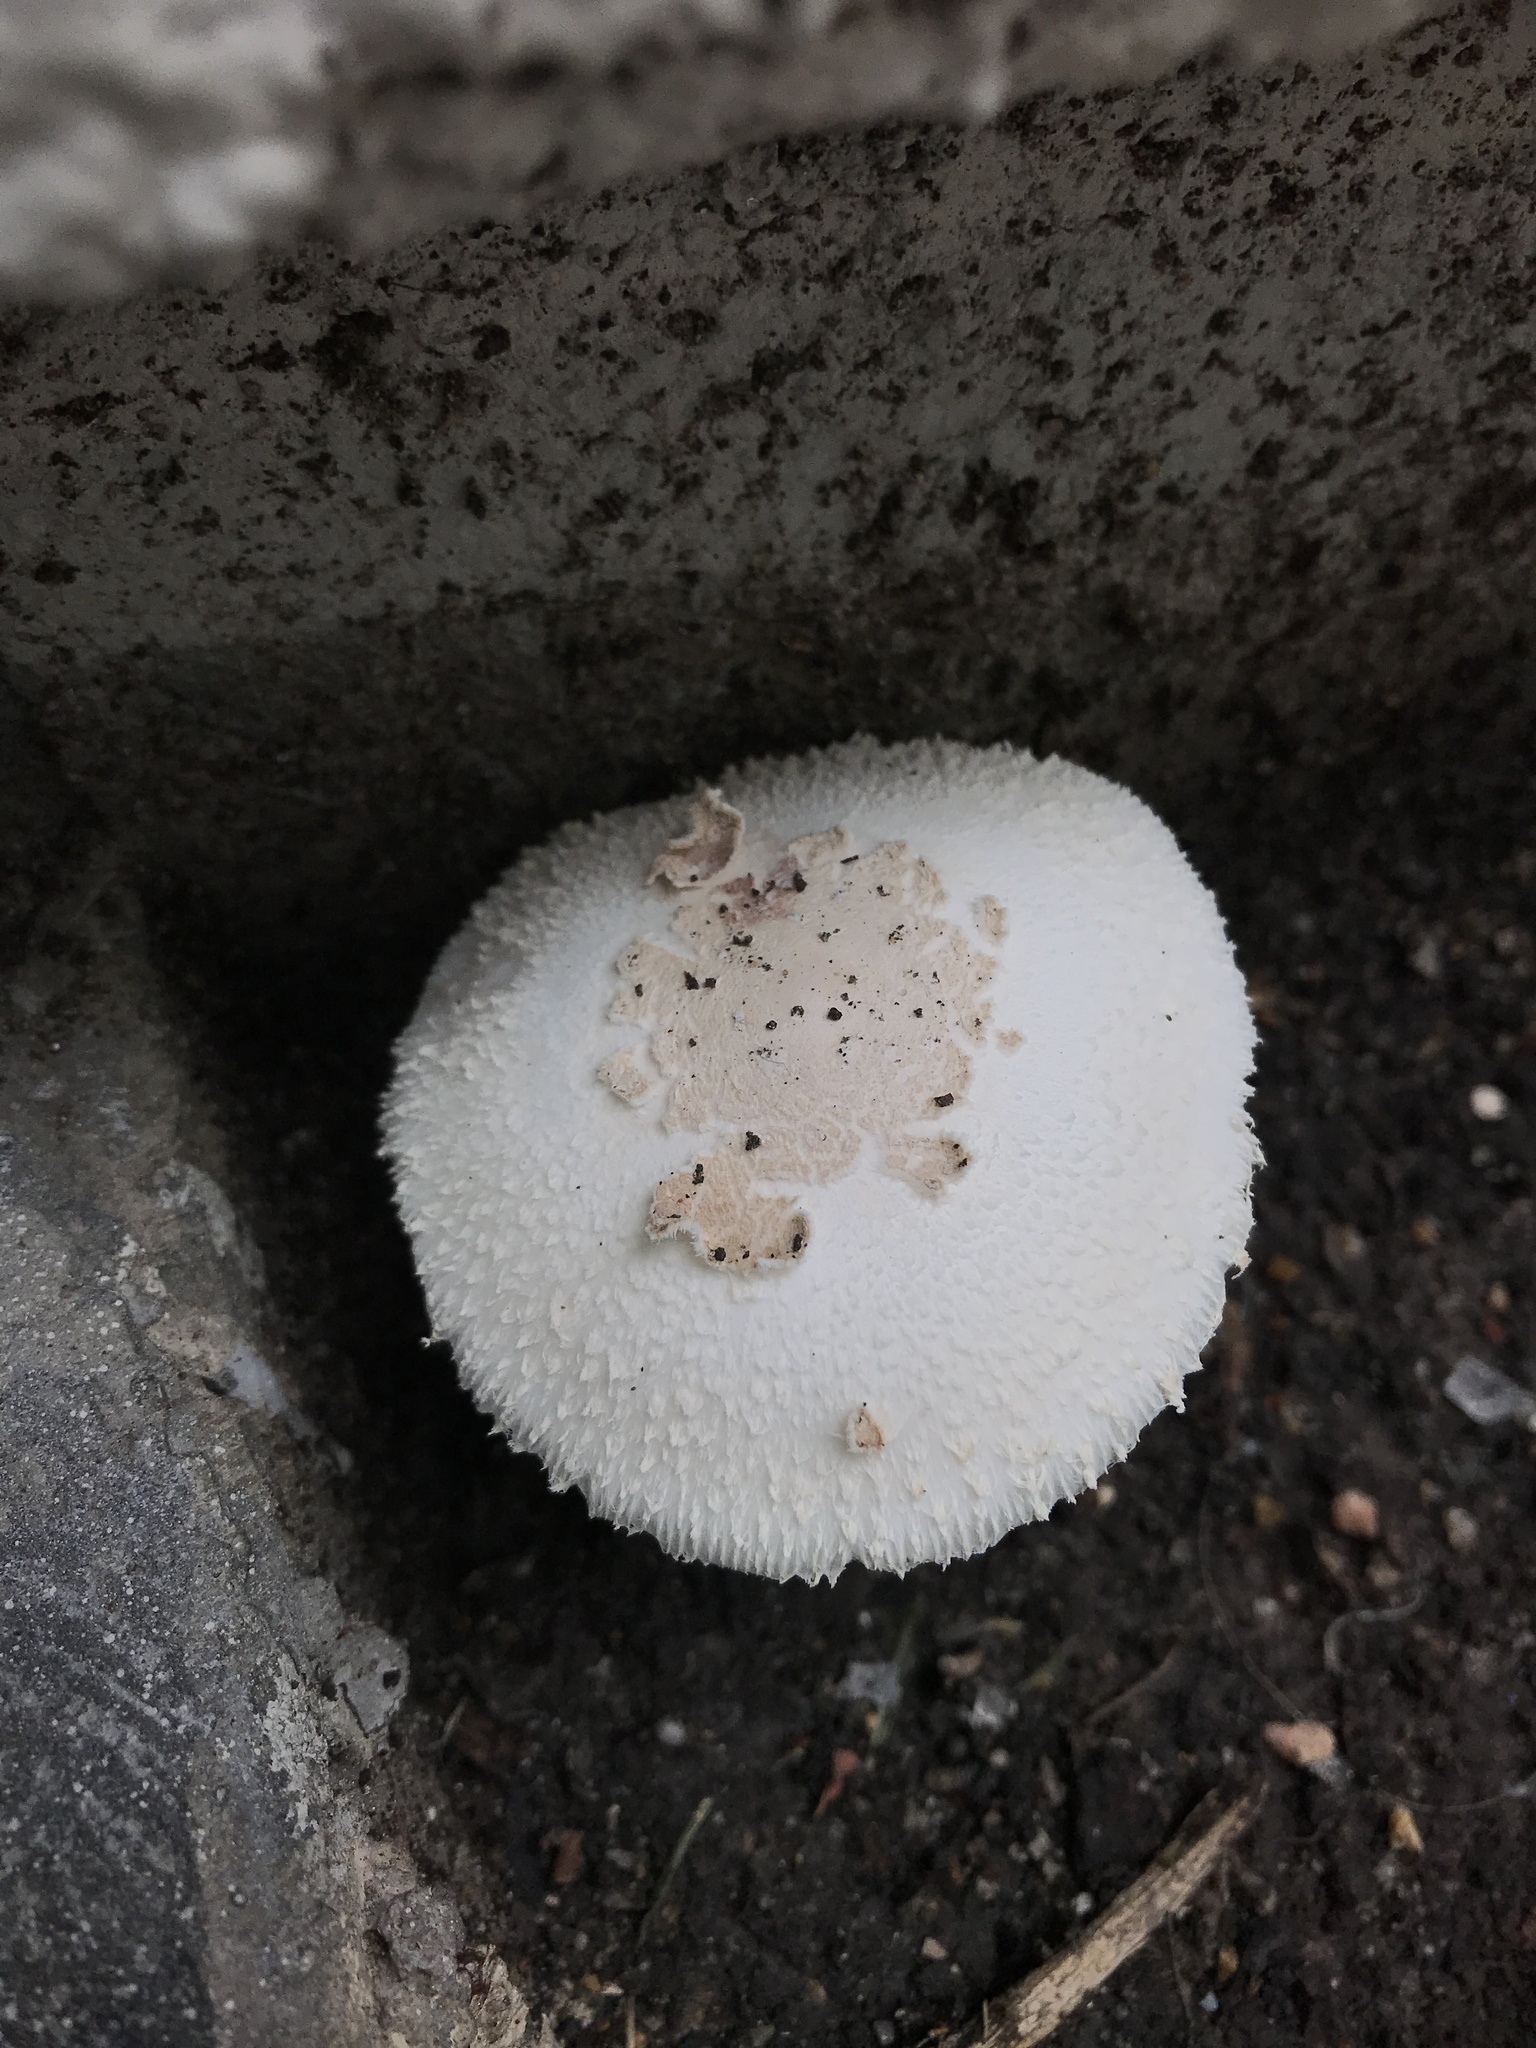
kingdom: Fungi
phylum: Basidiomycota
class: Agaricomycetes
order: Agaricales
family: Agaricaceae
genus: Chlorophyllum
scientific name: Chlorophyllum molybdites
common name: False parasol
